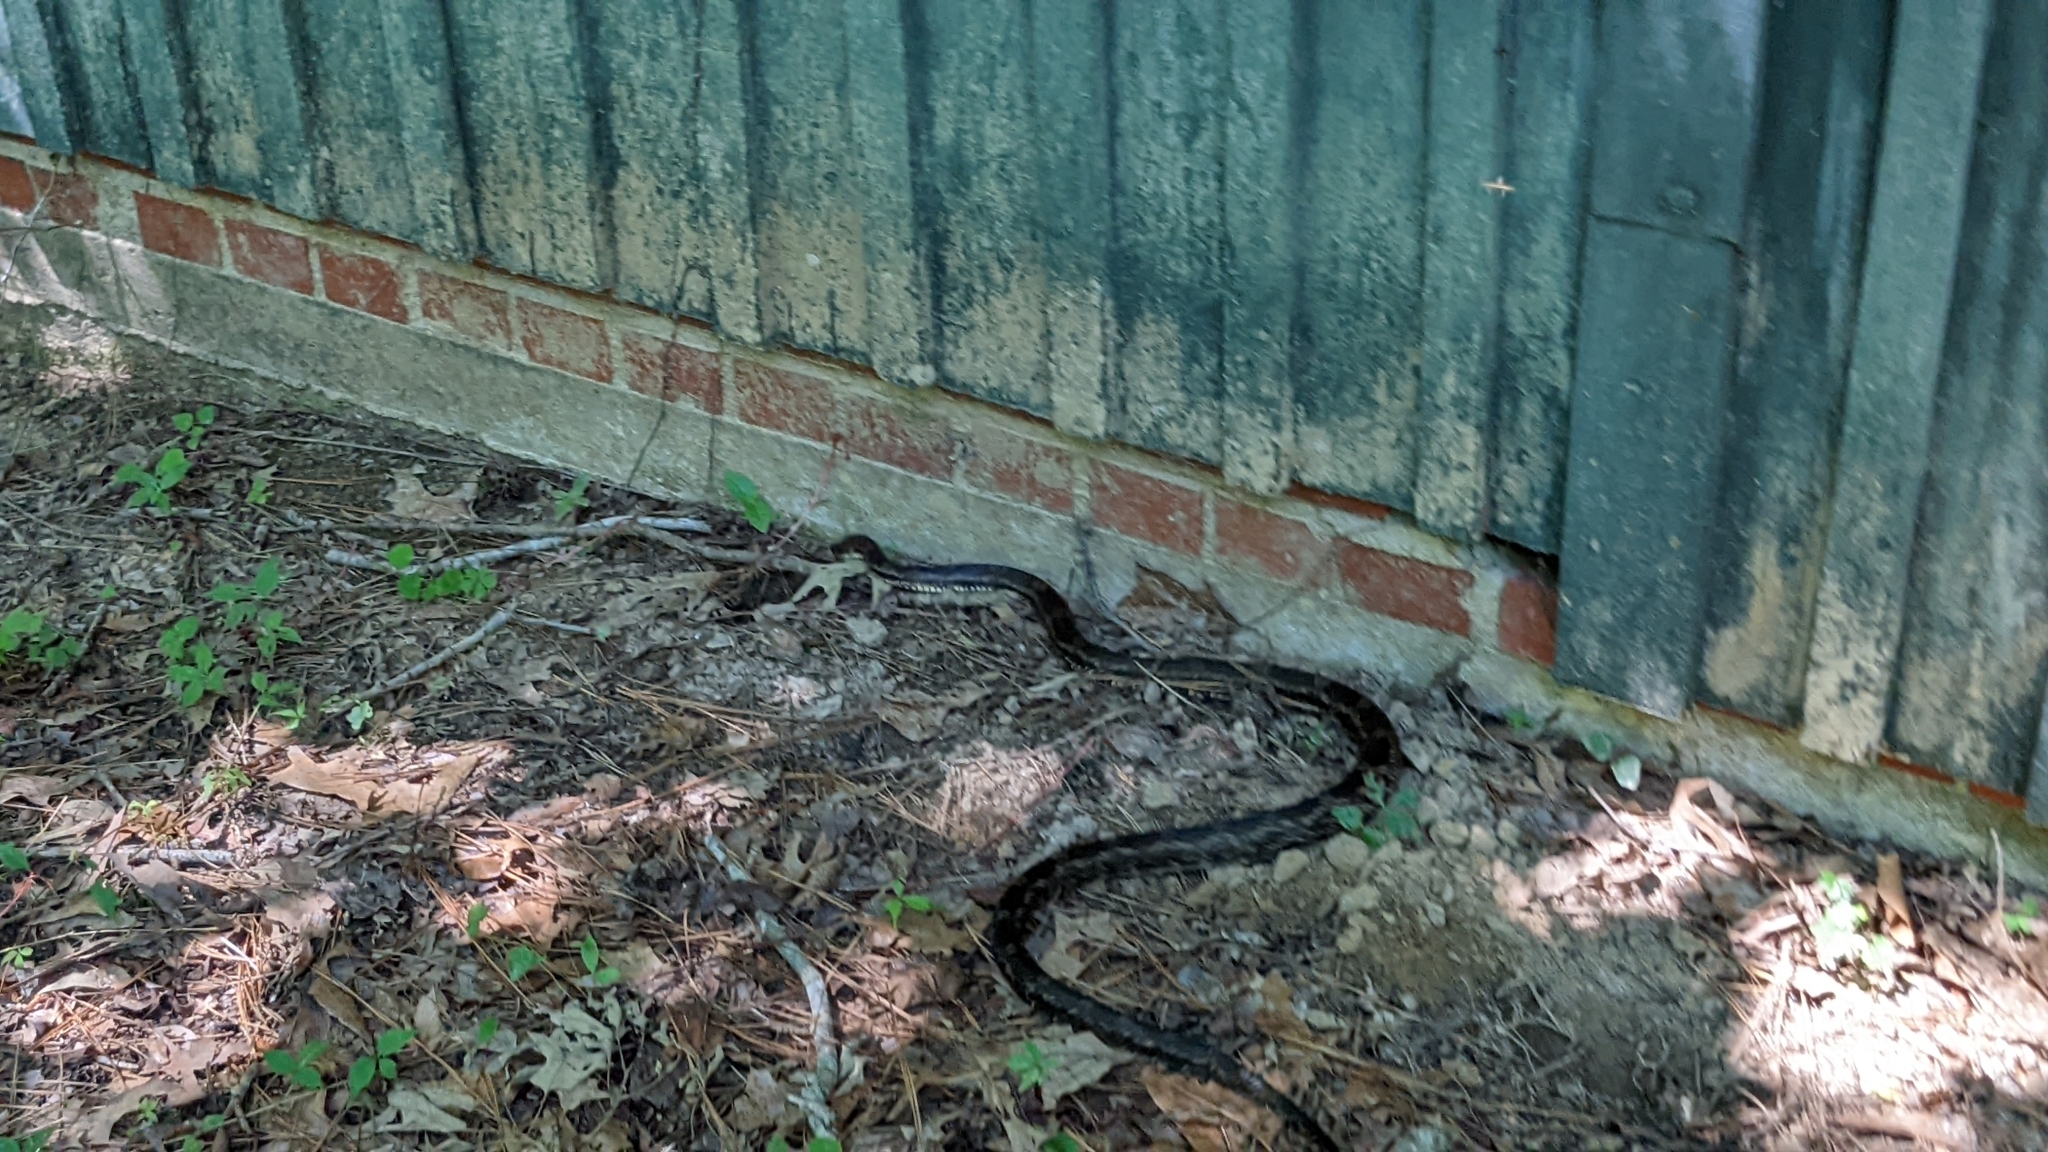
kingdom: Animalia
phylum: Chordata
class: Squamata
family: Colubridae
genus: Pantherophis
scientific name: Pantherophis obsoletus
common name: Black rat snake
